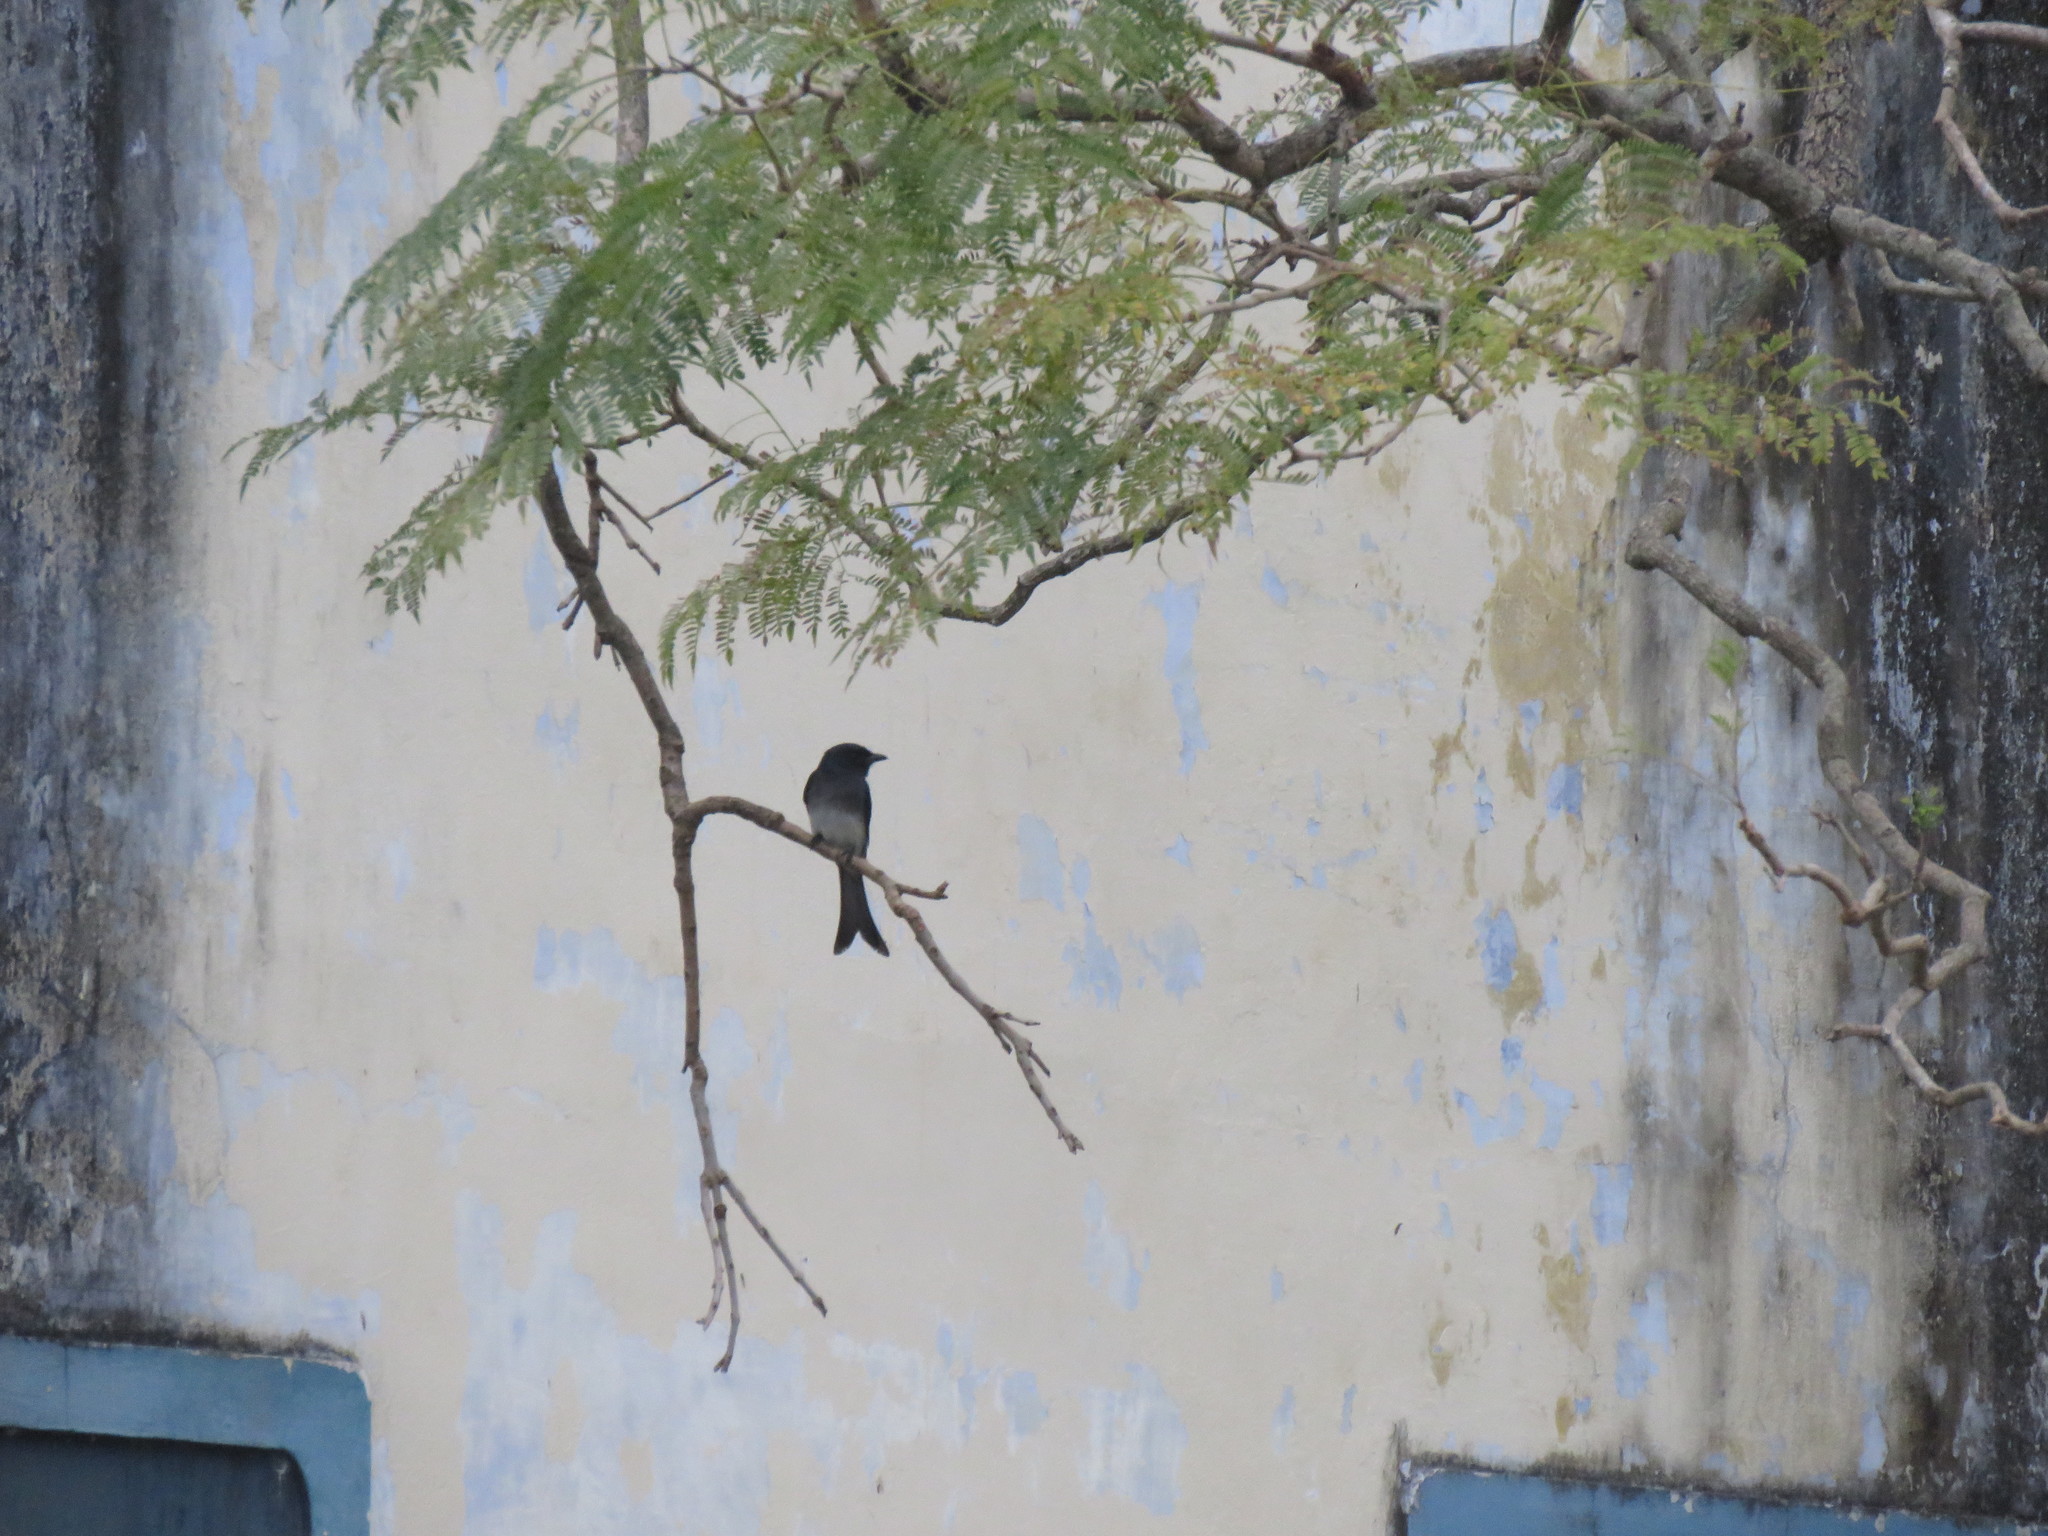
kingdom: Animalia
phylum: Chordata
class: Aves
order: Passeriformes
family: Dicruridae
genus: Dicrurus
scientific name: Dicrurus caerulescens
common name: White-bellied drongo
